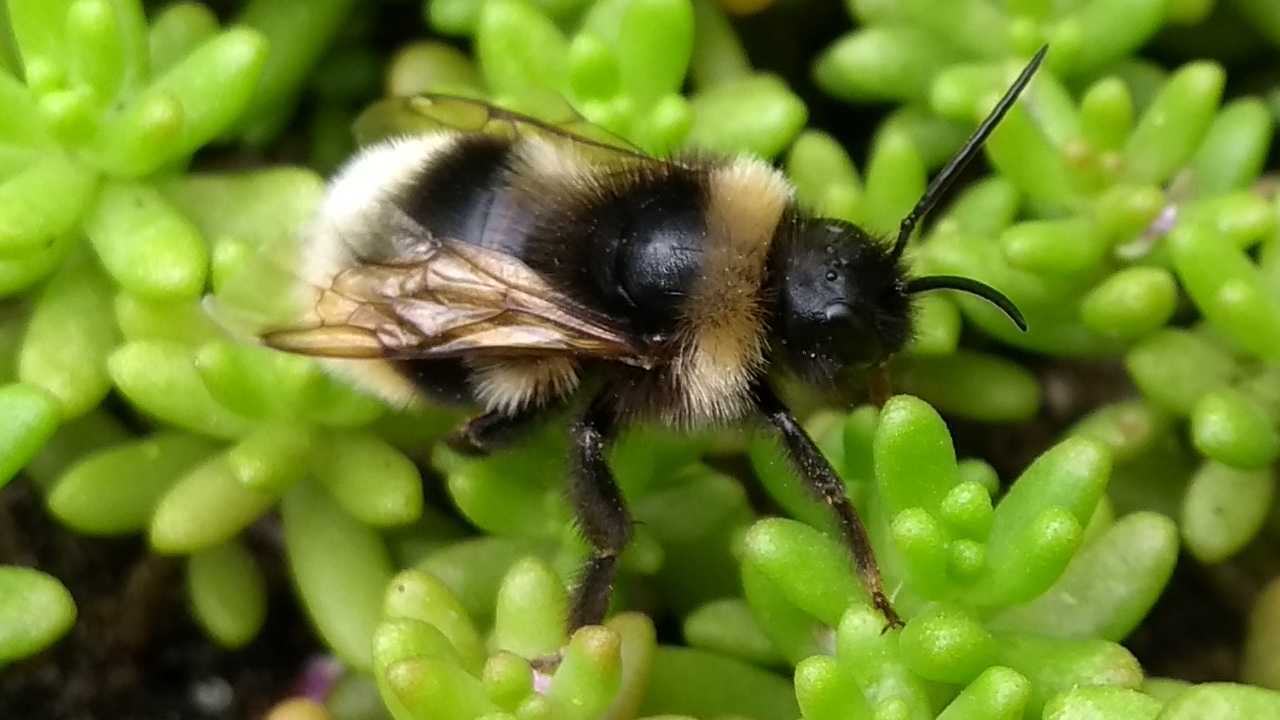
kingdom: Animalia
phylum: Arthropoda
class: Insecta
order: Hymenoptera
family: Apidae
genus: Bombus
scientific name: Bombus
